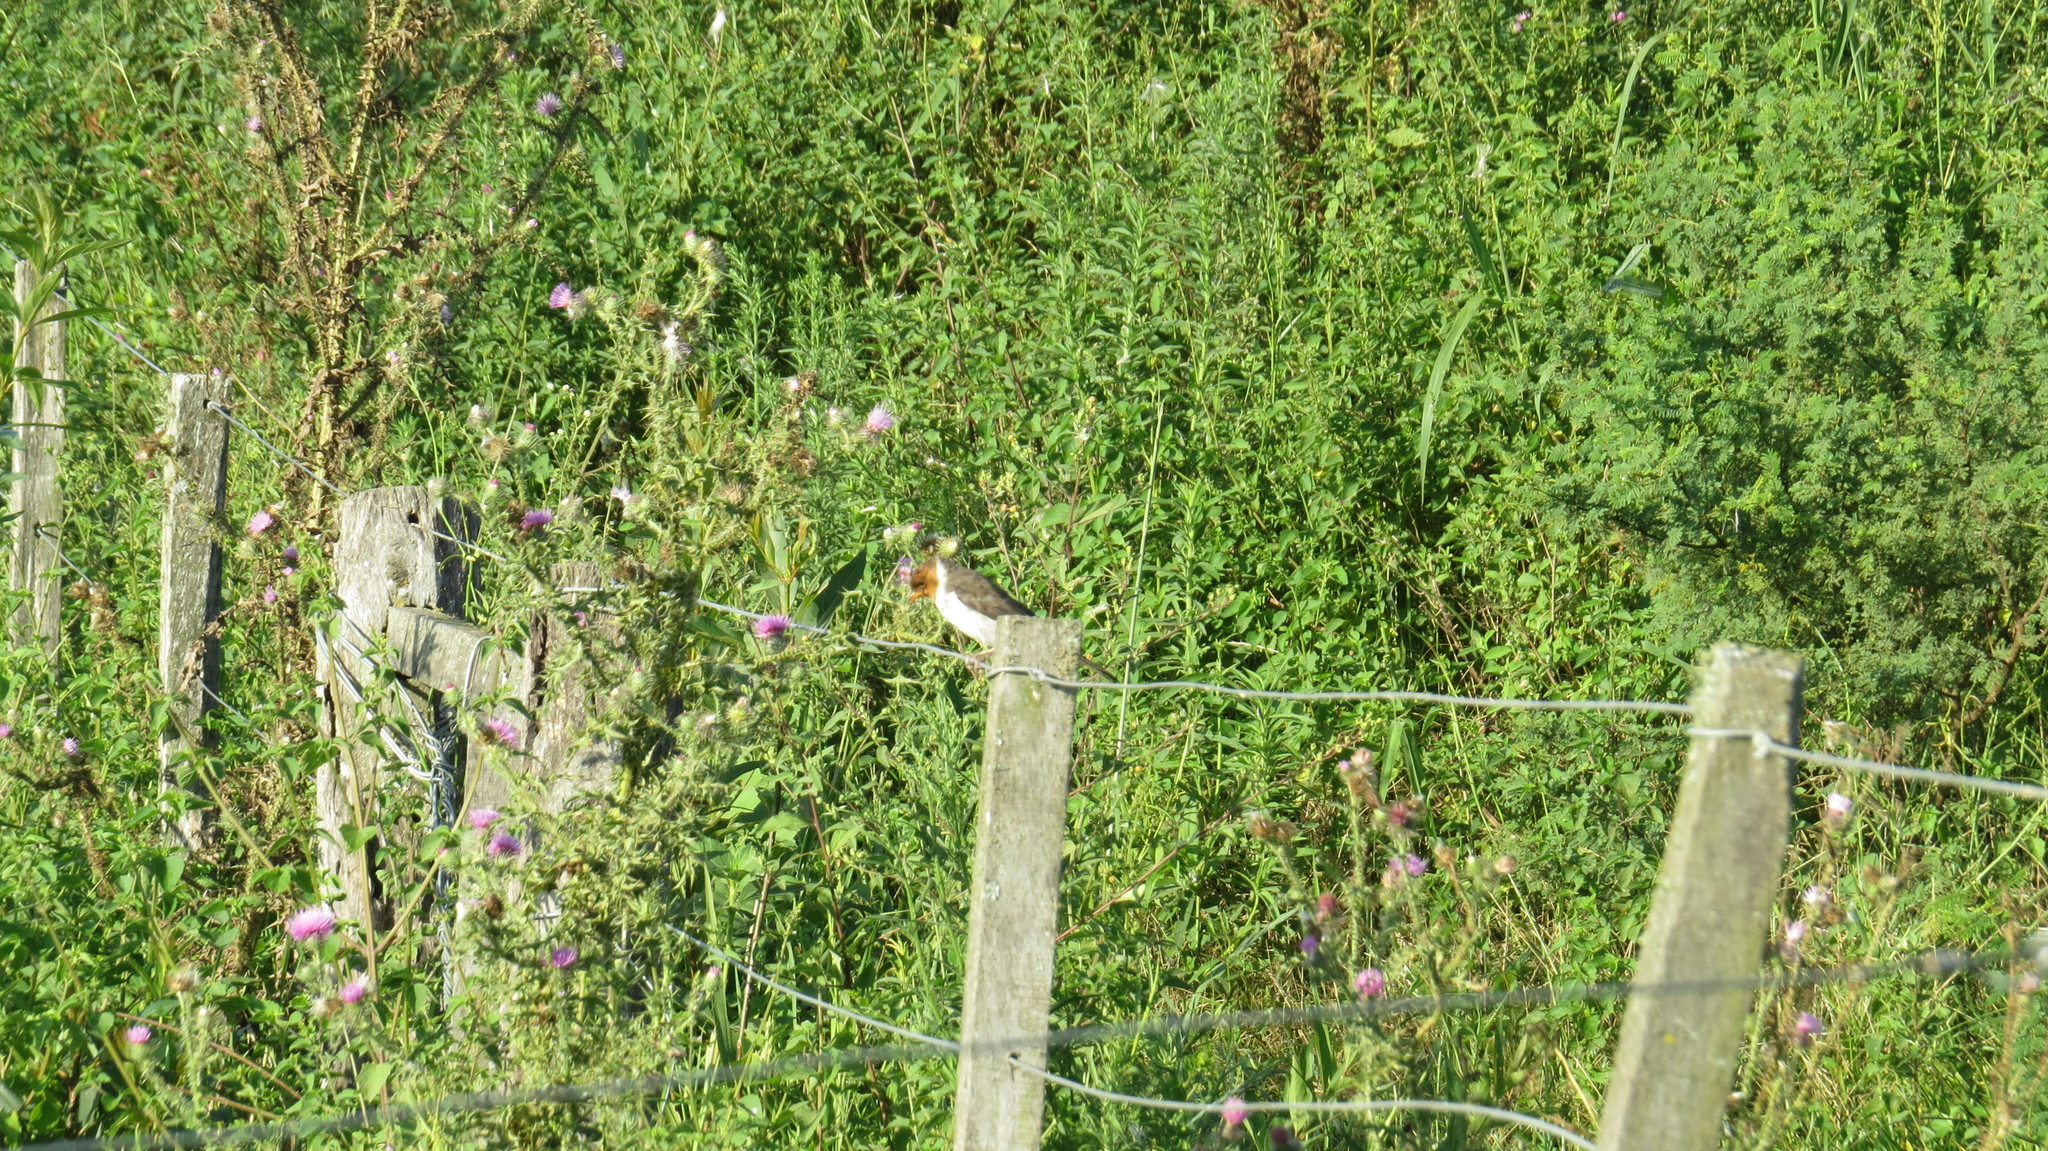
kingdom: Animalia
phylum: Chordata
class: Aves
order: Passeriformes
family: Thraupidae
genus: Paroaria
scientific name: Paroaria capitata
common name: Yellow-billed cardinal
